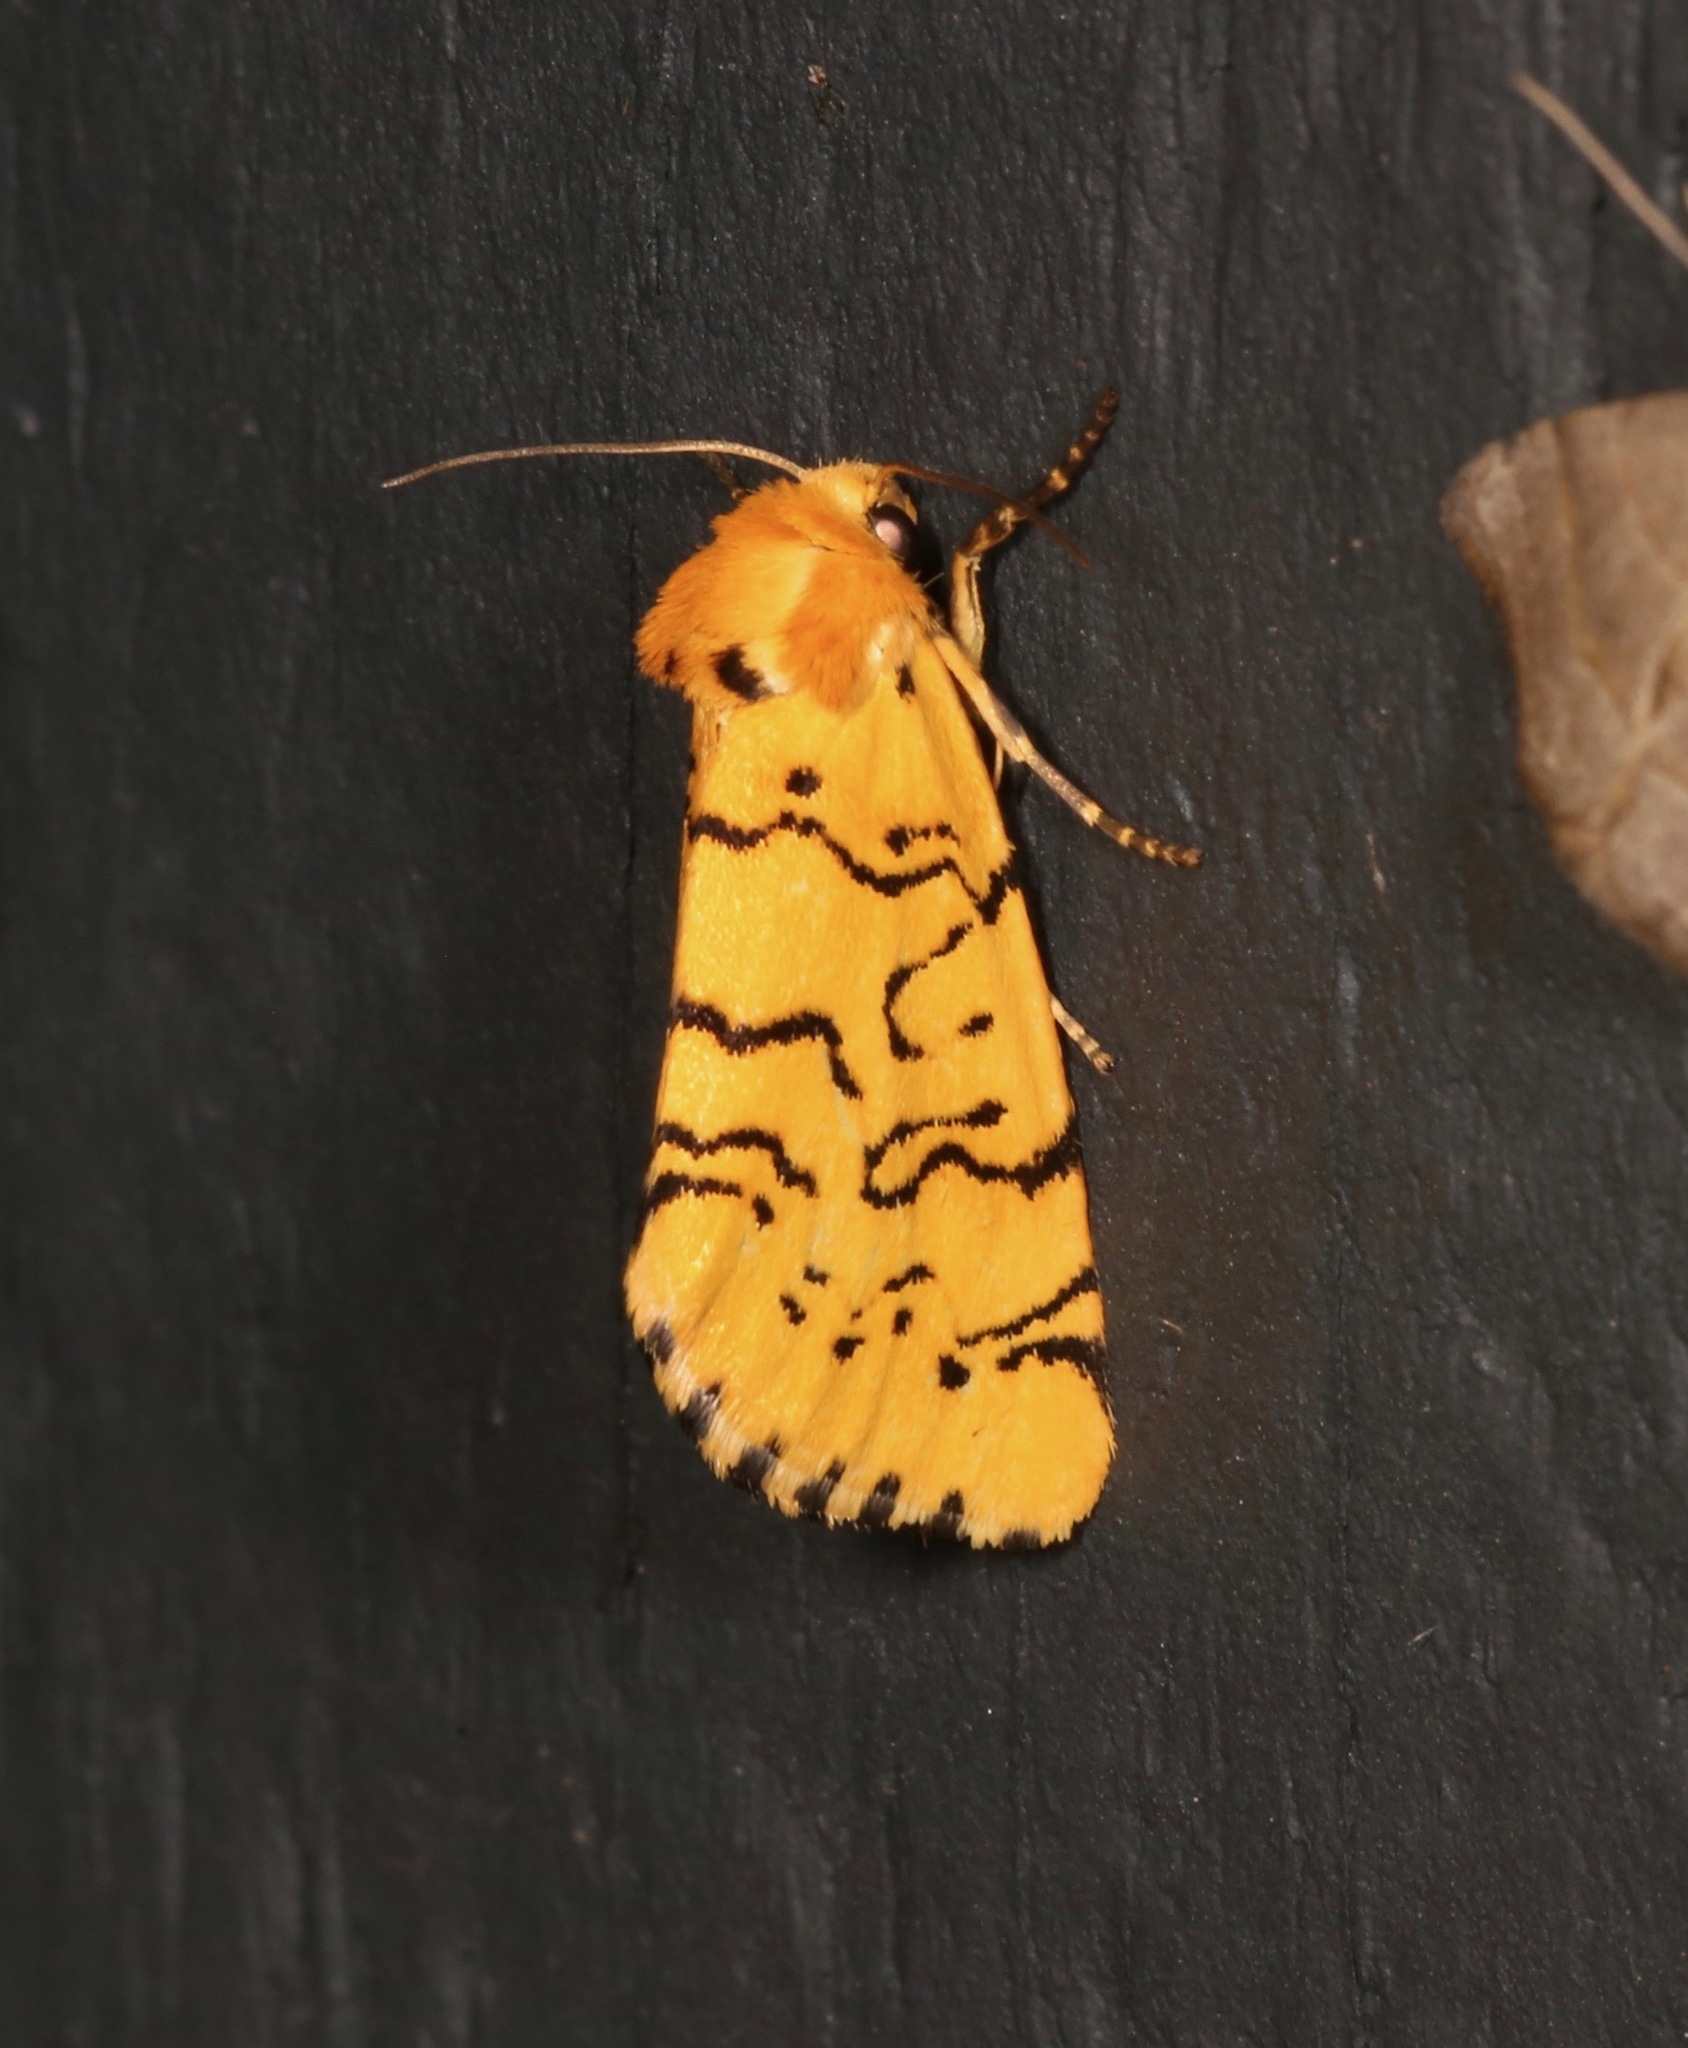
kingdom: Animalia
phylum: Arthropoda
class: Insecta
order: Lepidoptera
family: Noctuidae
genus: Chrysoecia
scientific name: Chrysoecia atrolinea
